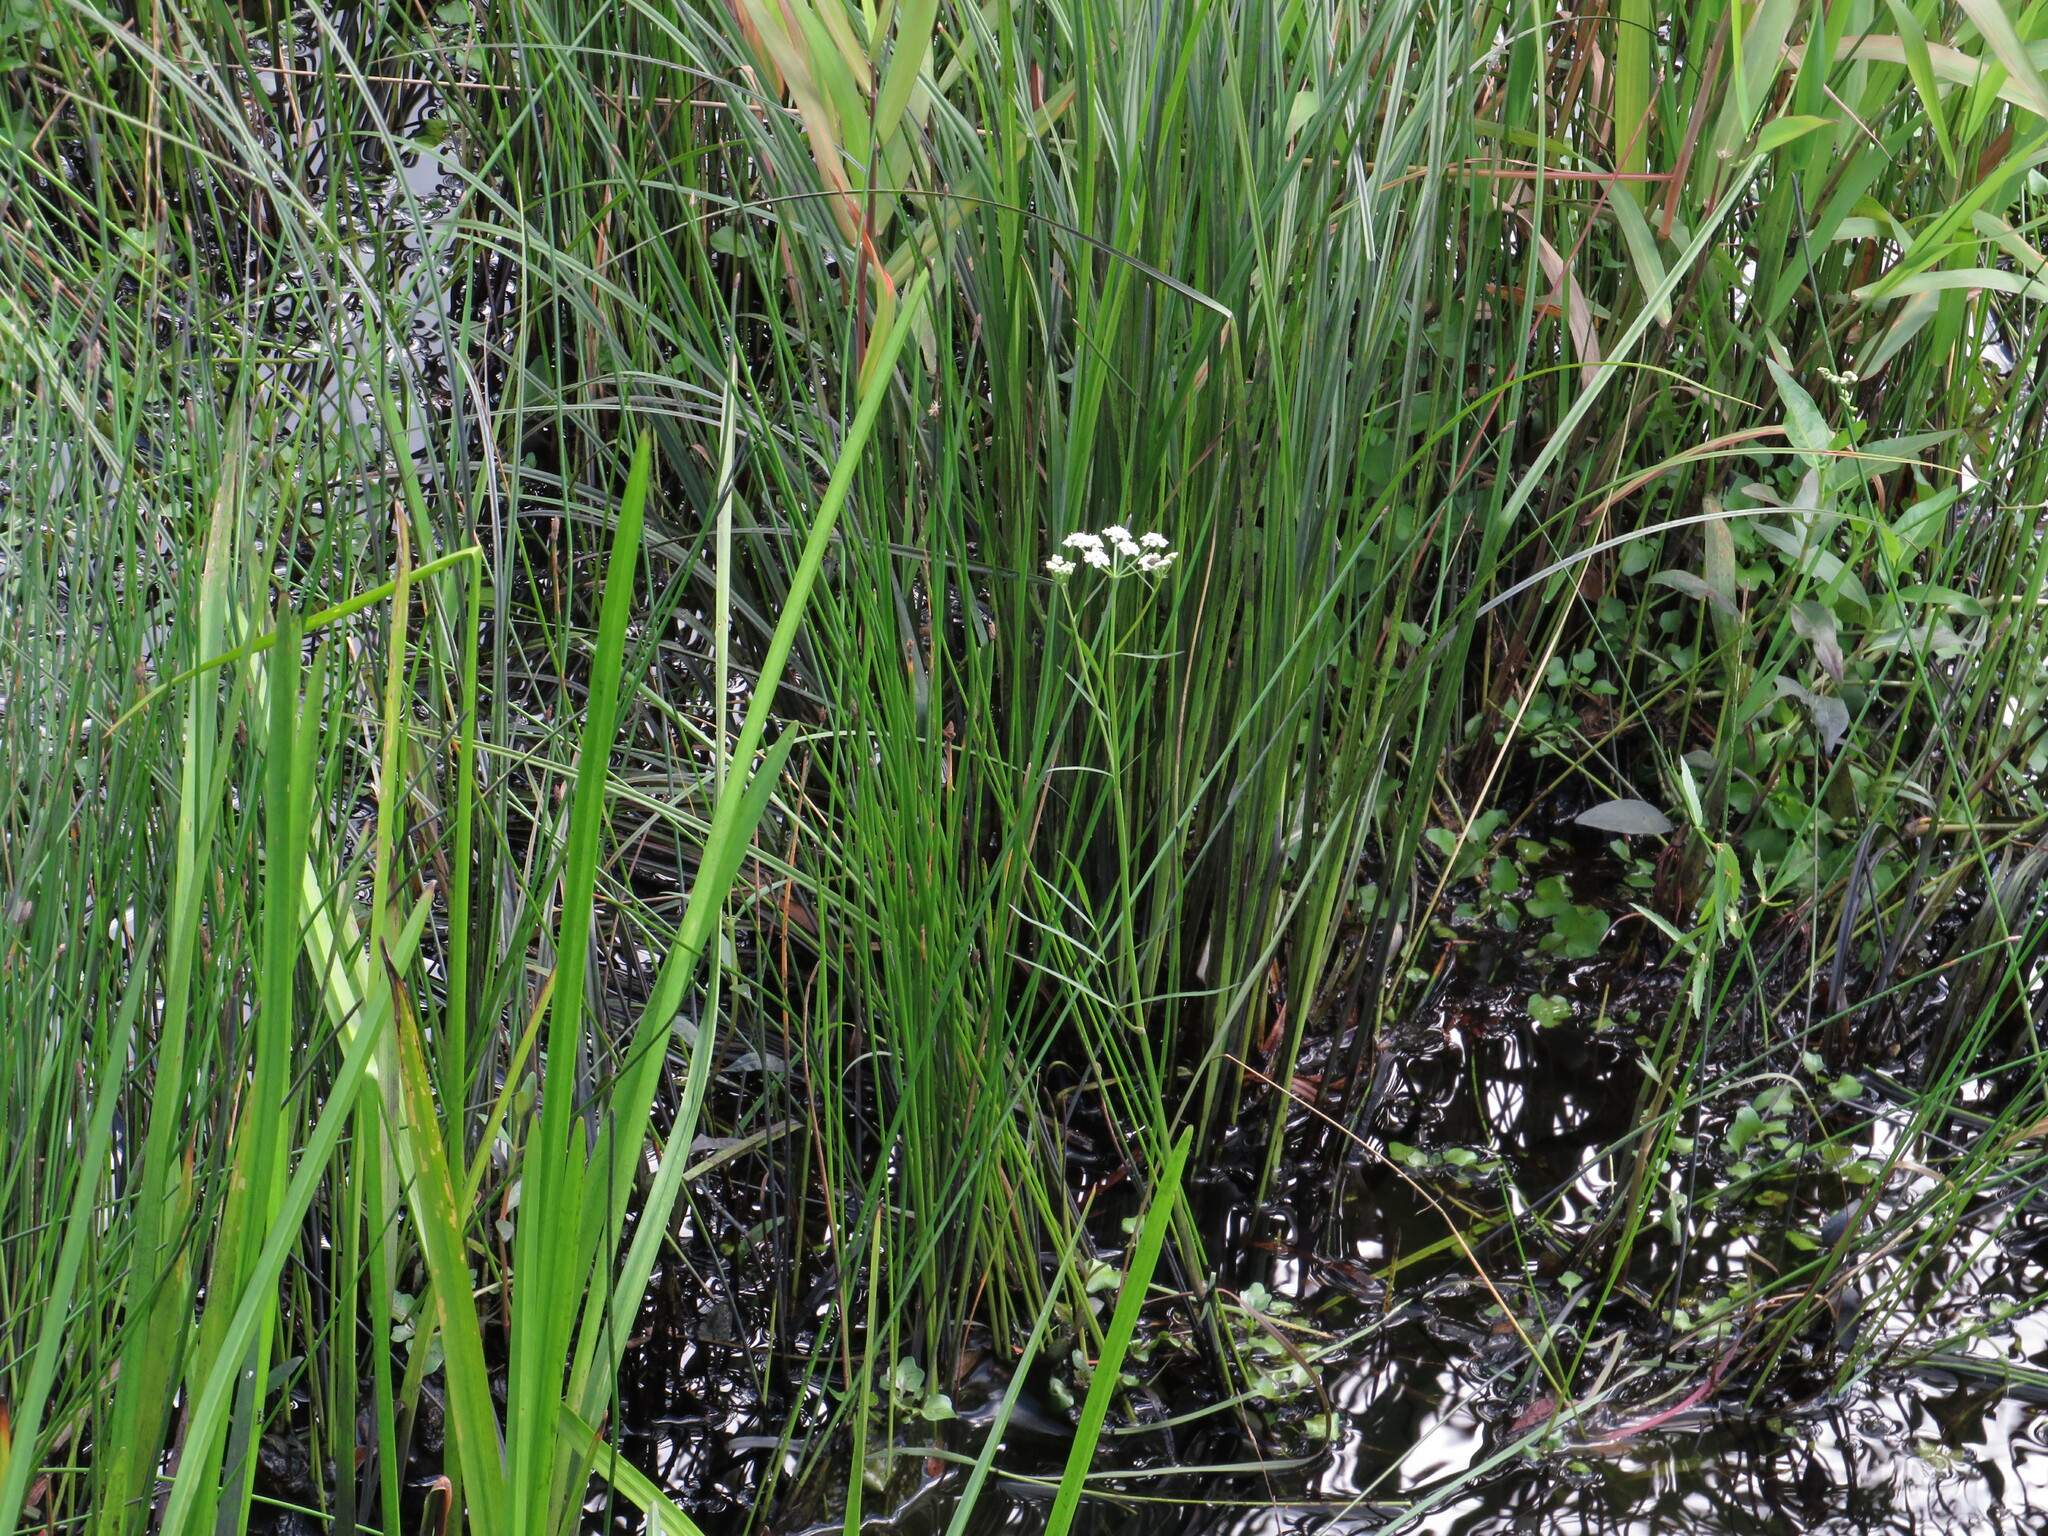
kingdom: Plantae
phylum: Tracheophyta
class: Magnoliopsida
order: Apiales
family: Apiaceae
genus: Sium
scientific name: Sium suave
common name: Hemlock water-parsnip
